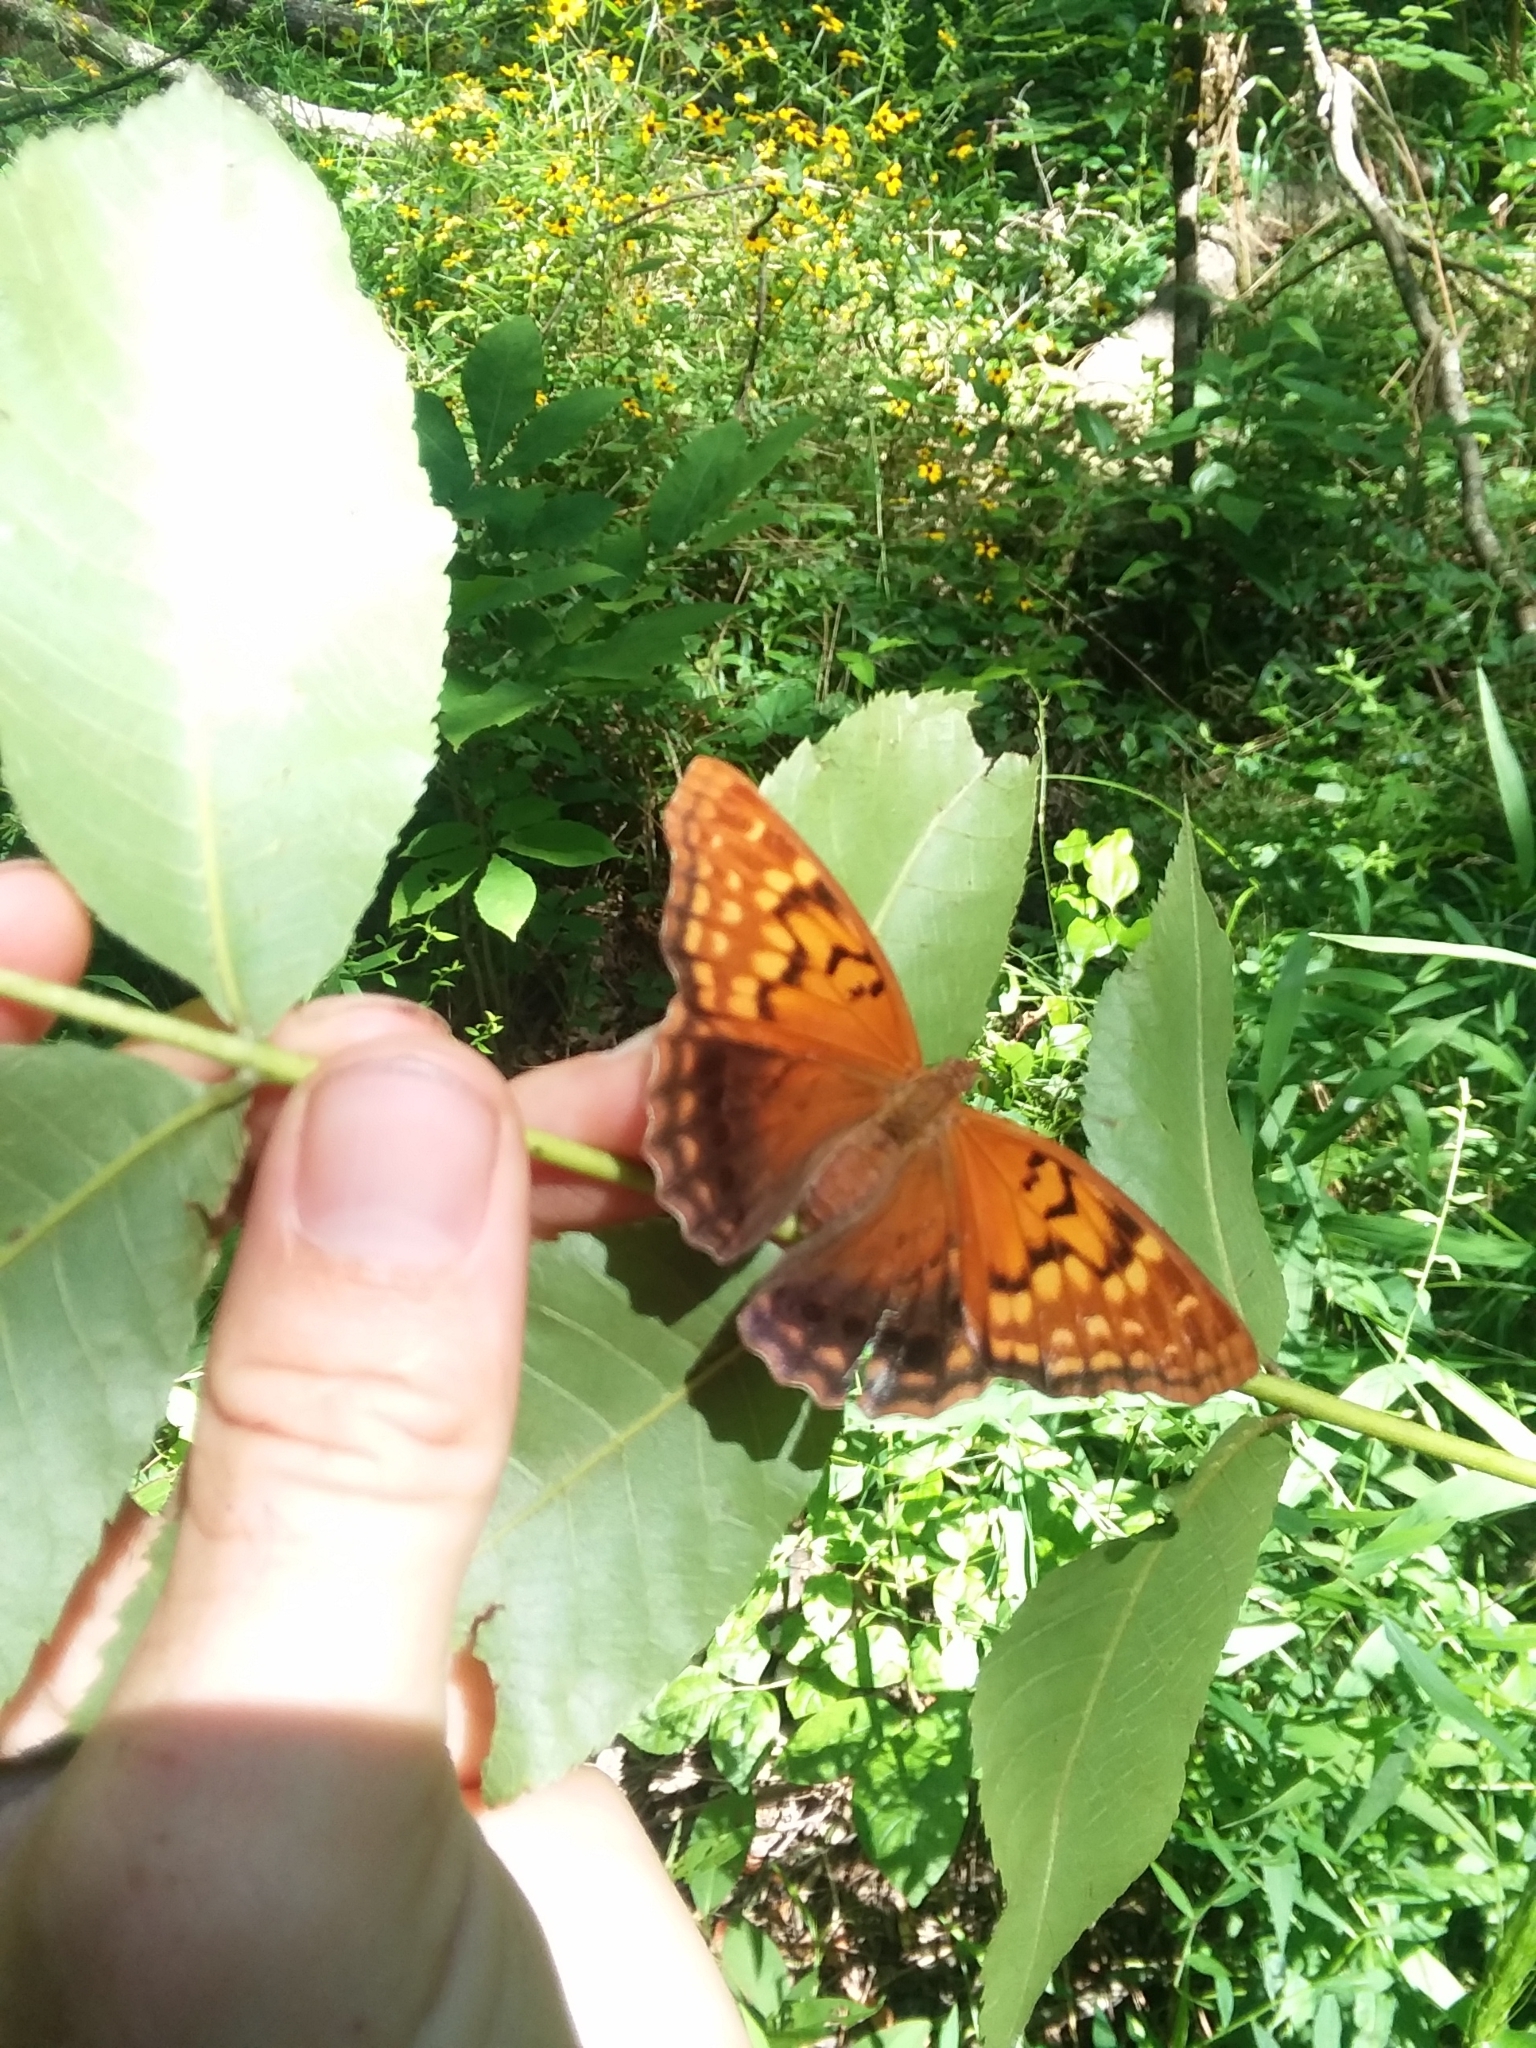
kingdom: Animalia
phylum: Arthropoda
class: Insecta
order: Lepidoptera
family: Nymphalidae
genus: Asterocampa
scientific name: Asterocampa clyton
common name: Tawny emperor
